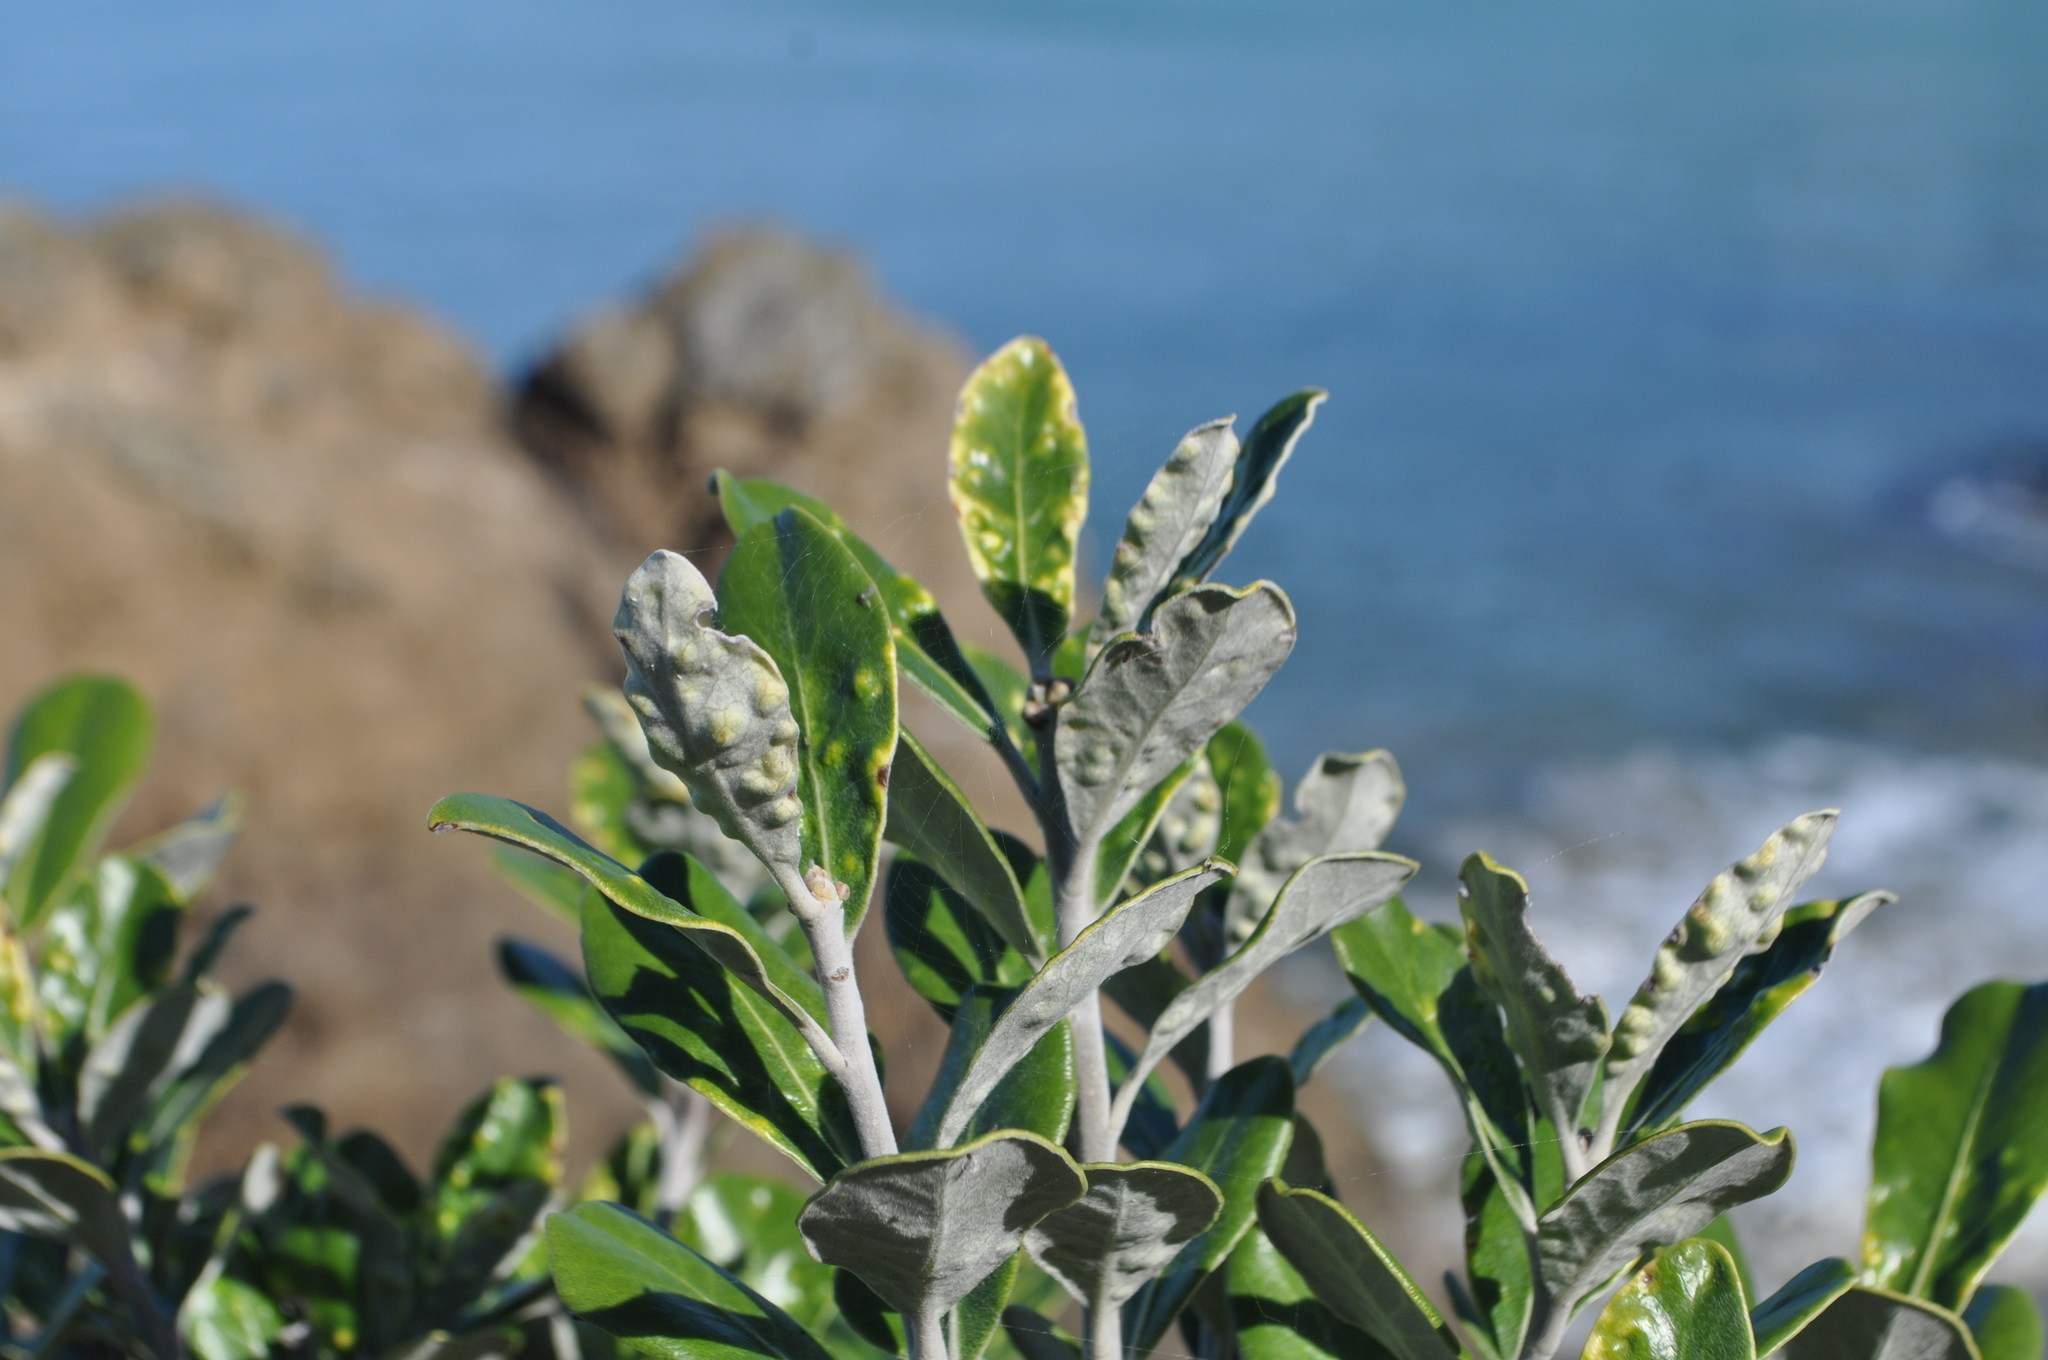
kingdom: Plantae
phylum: Tracheophyta
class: Magnoliopsida
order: Apiales
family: Pittosporaceae
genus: Pittosporum
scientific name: Pittosporum crassifolium
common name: Karo
